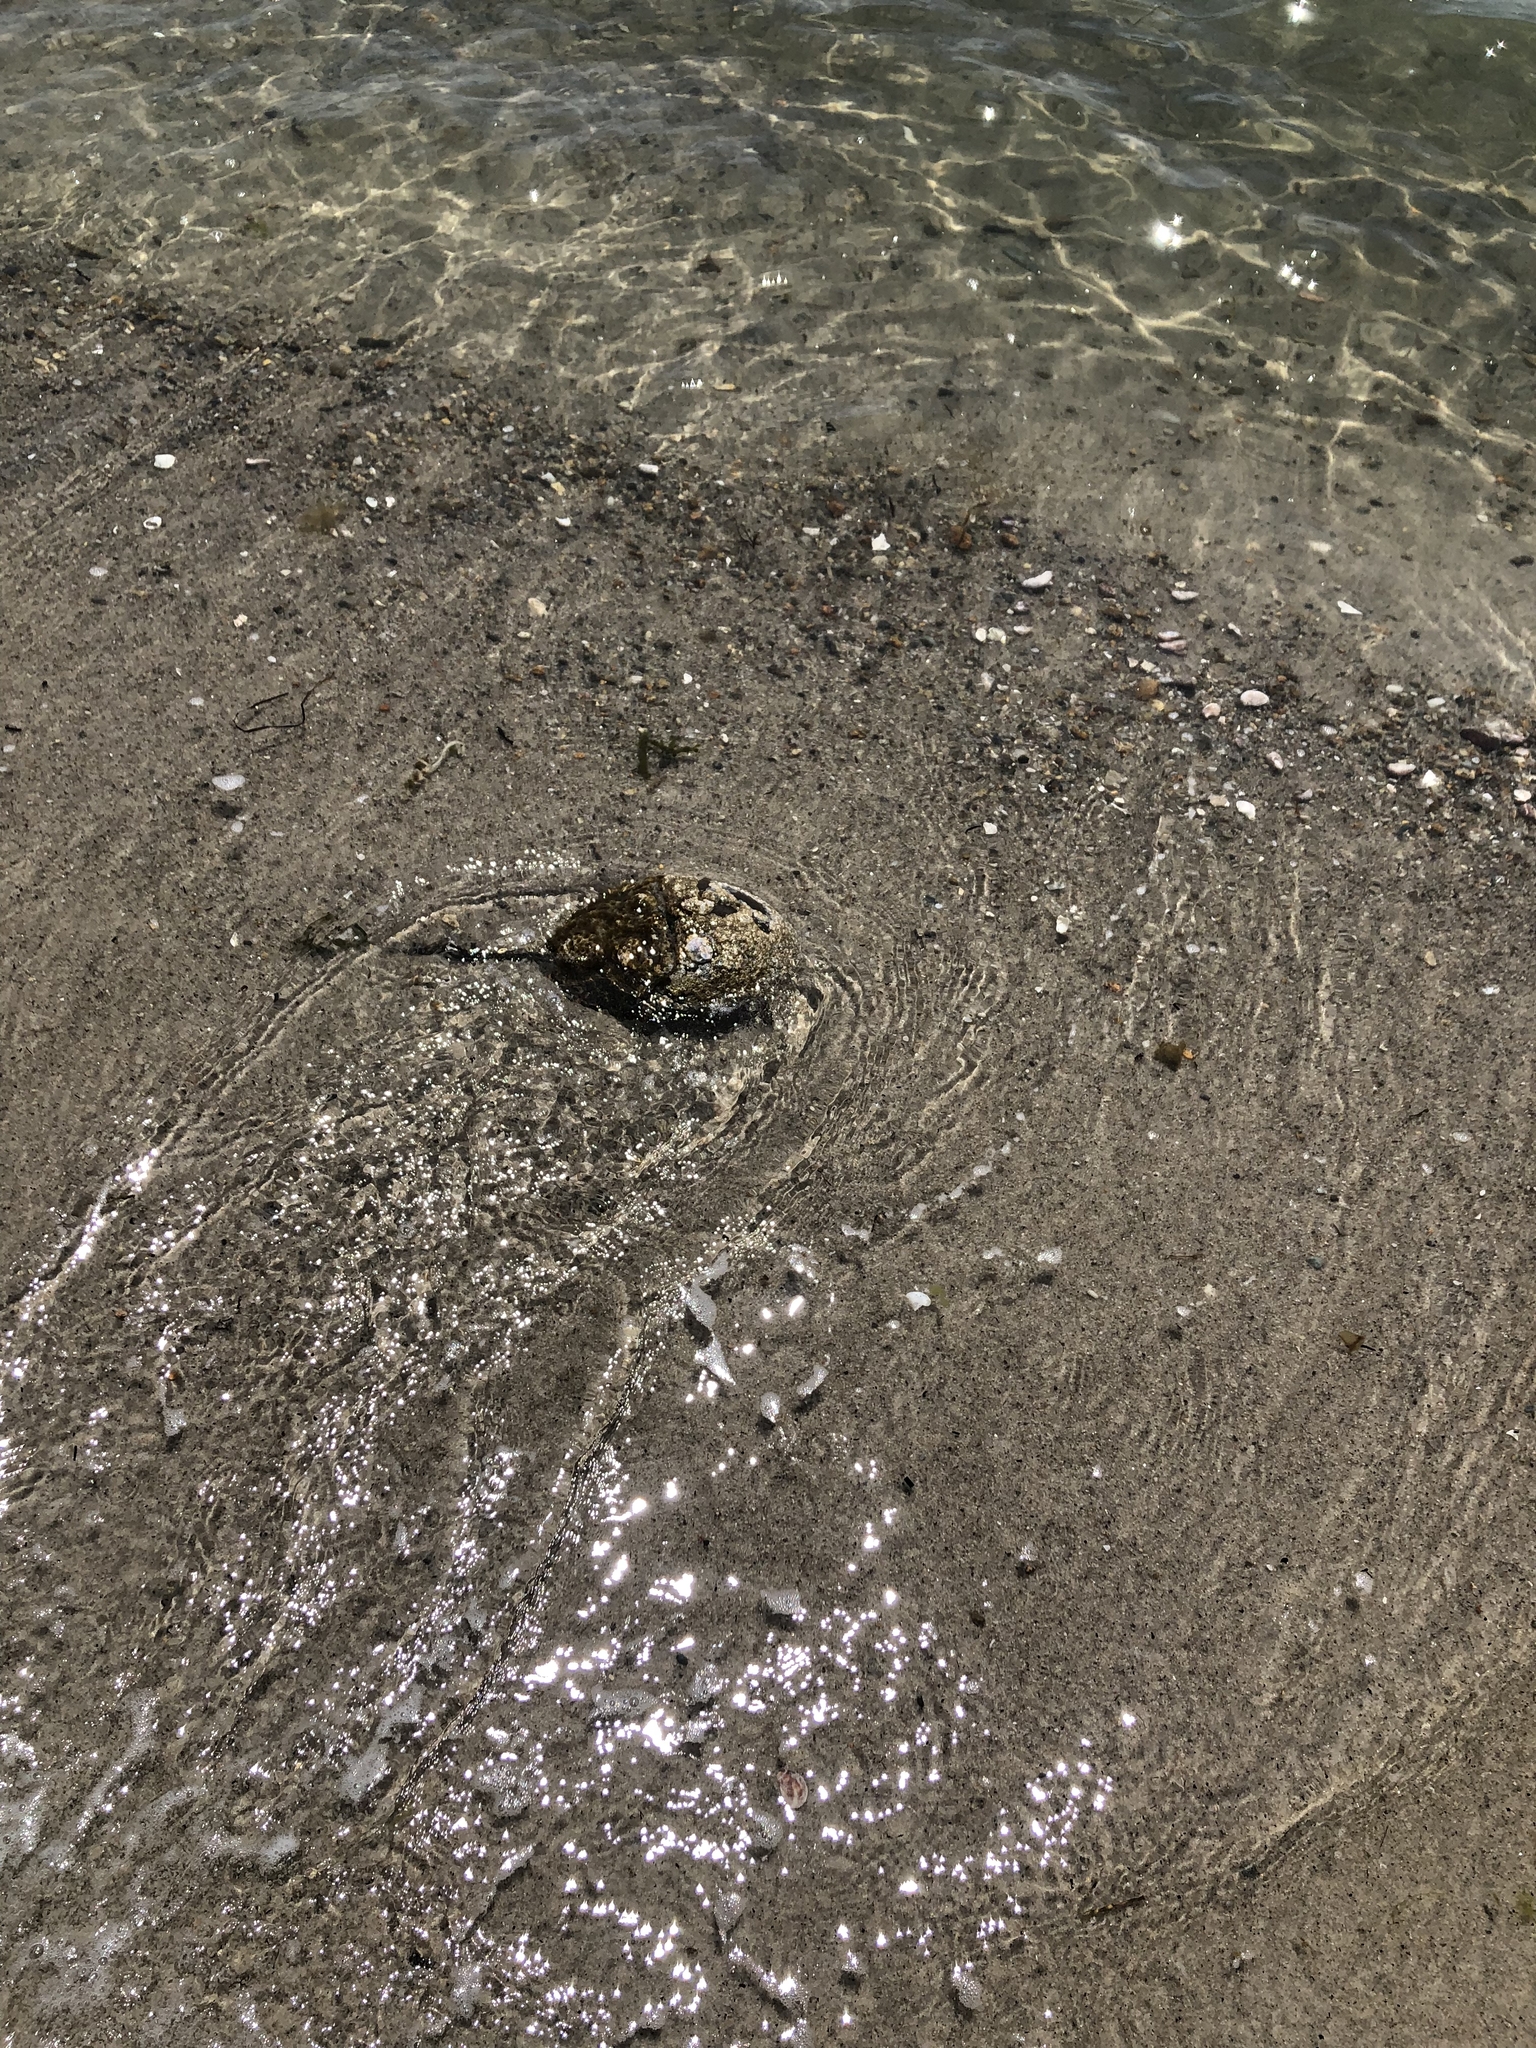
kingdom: Animalia
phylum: Arthropoda
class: Merostomata
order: Xiphosurida
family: Limulidae
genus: Limulus
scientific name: Limulus polyphemus
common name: Horseshoe crab
